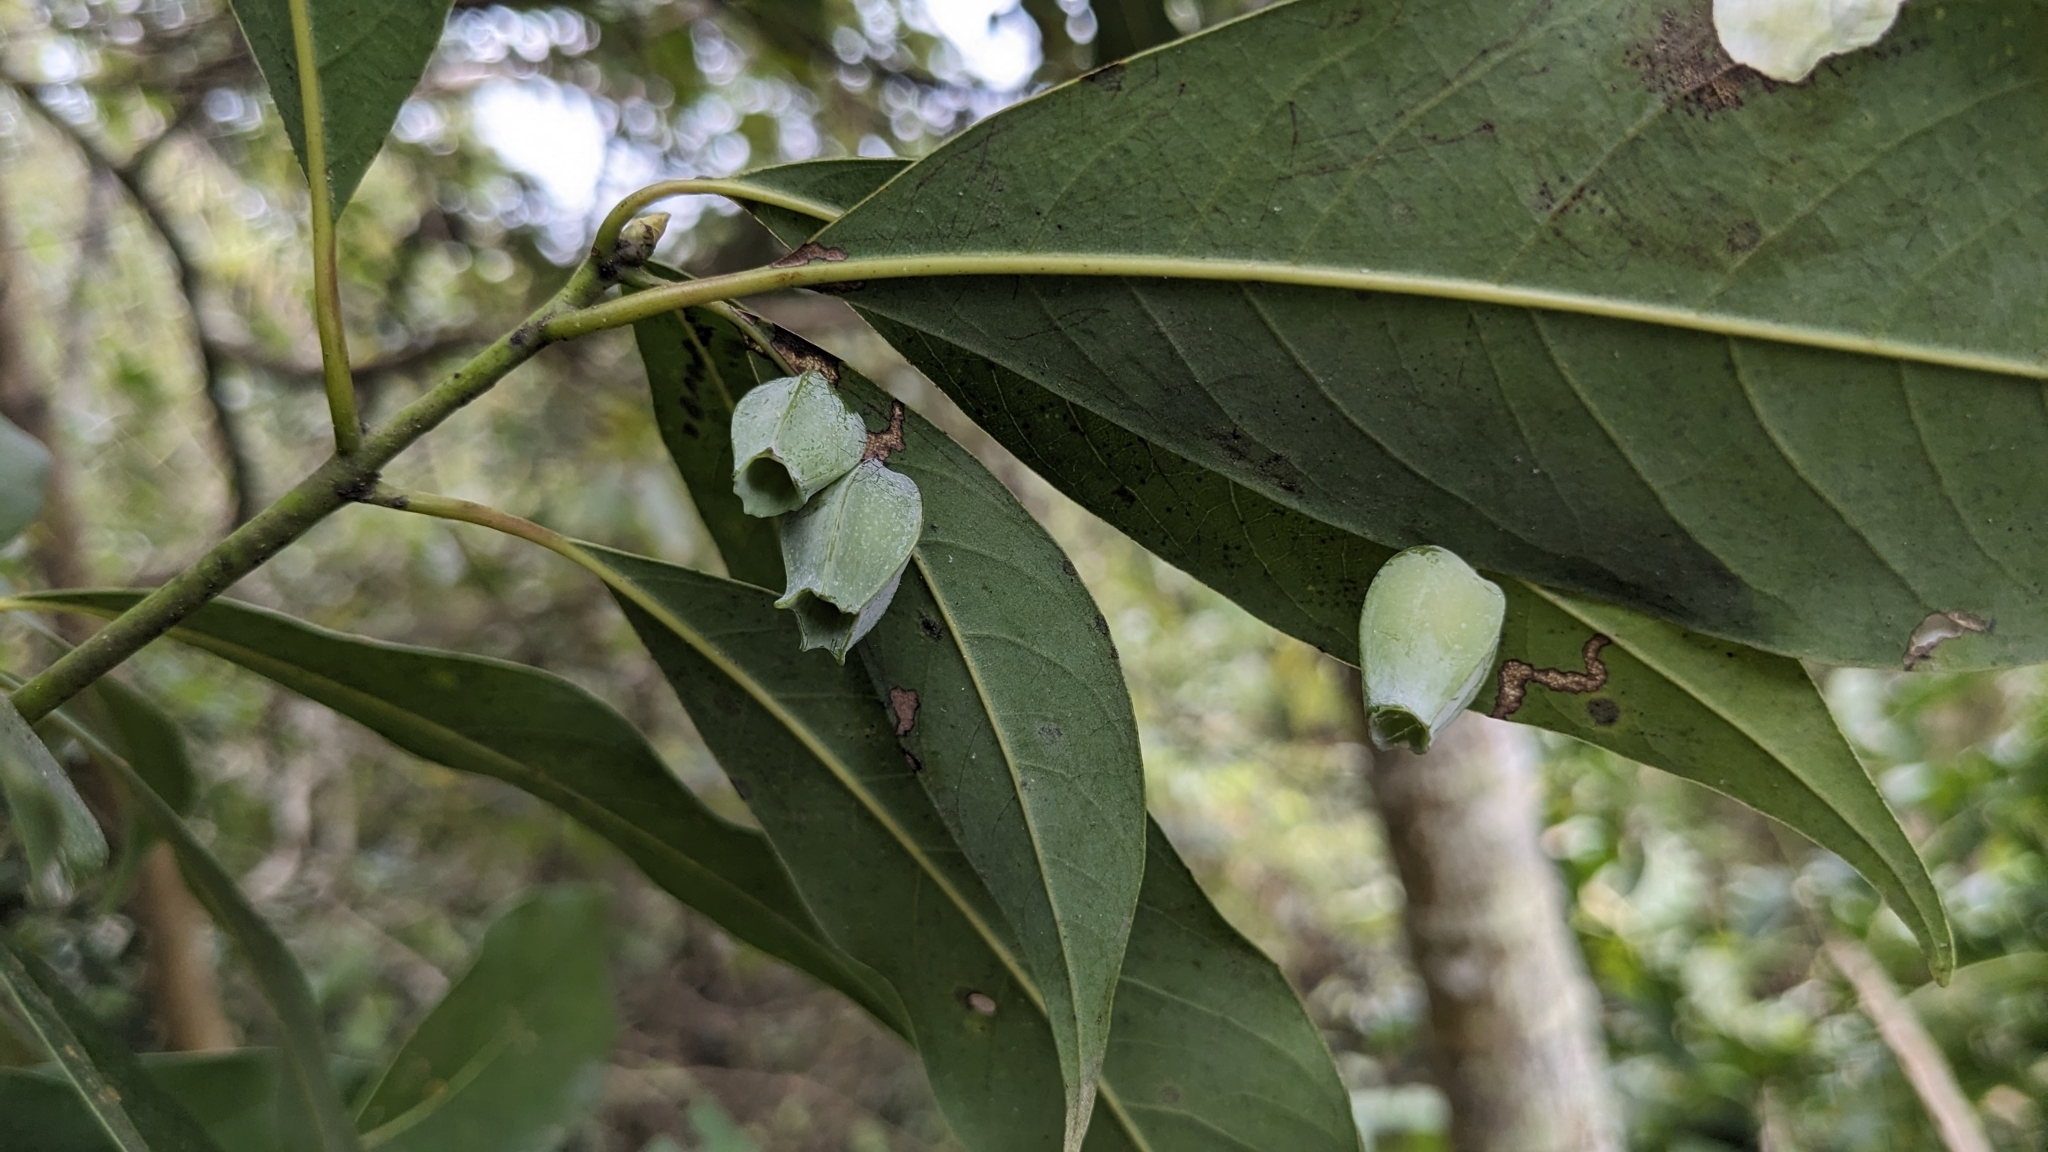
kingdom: Animalia
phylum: Arthropoda
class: Insecta
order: Diptera
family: Cecidomyiidae
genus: Daphnephila
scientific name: Daphnephila urnicola
